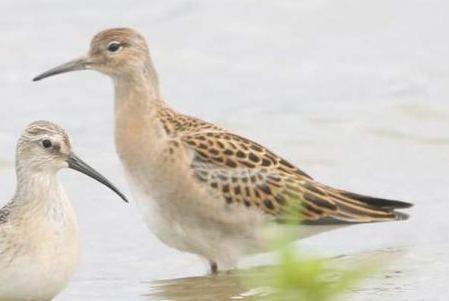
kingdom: Animalia
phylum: Chordata
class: Aves
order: Charadriiformes
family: Scolopacidae
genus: Calidris
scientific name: Calidris pugnax
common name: Ruff
